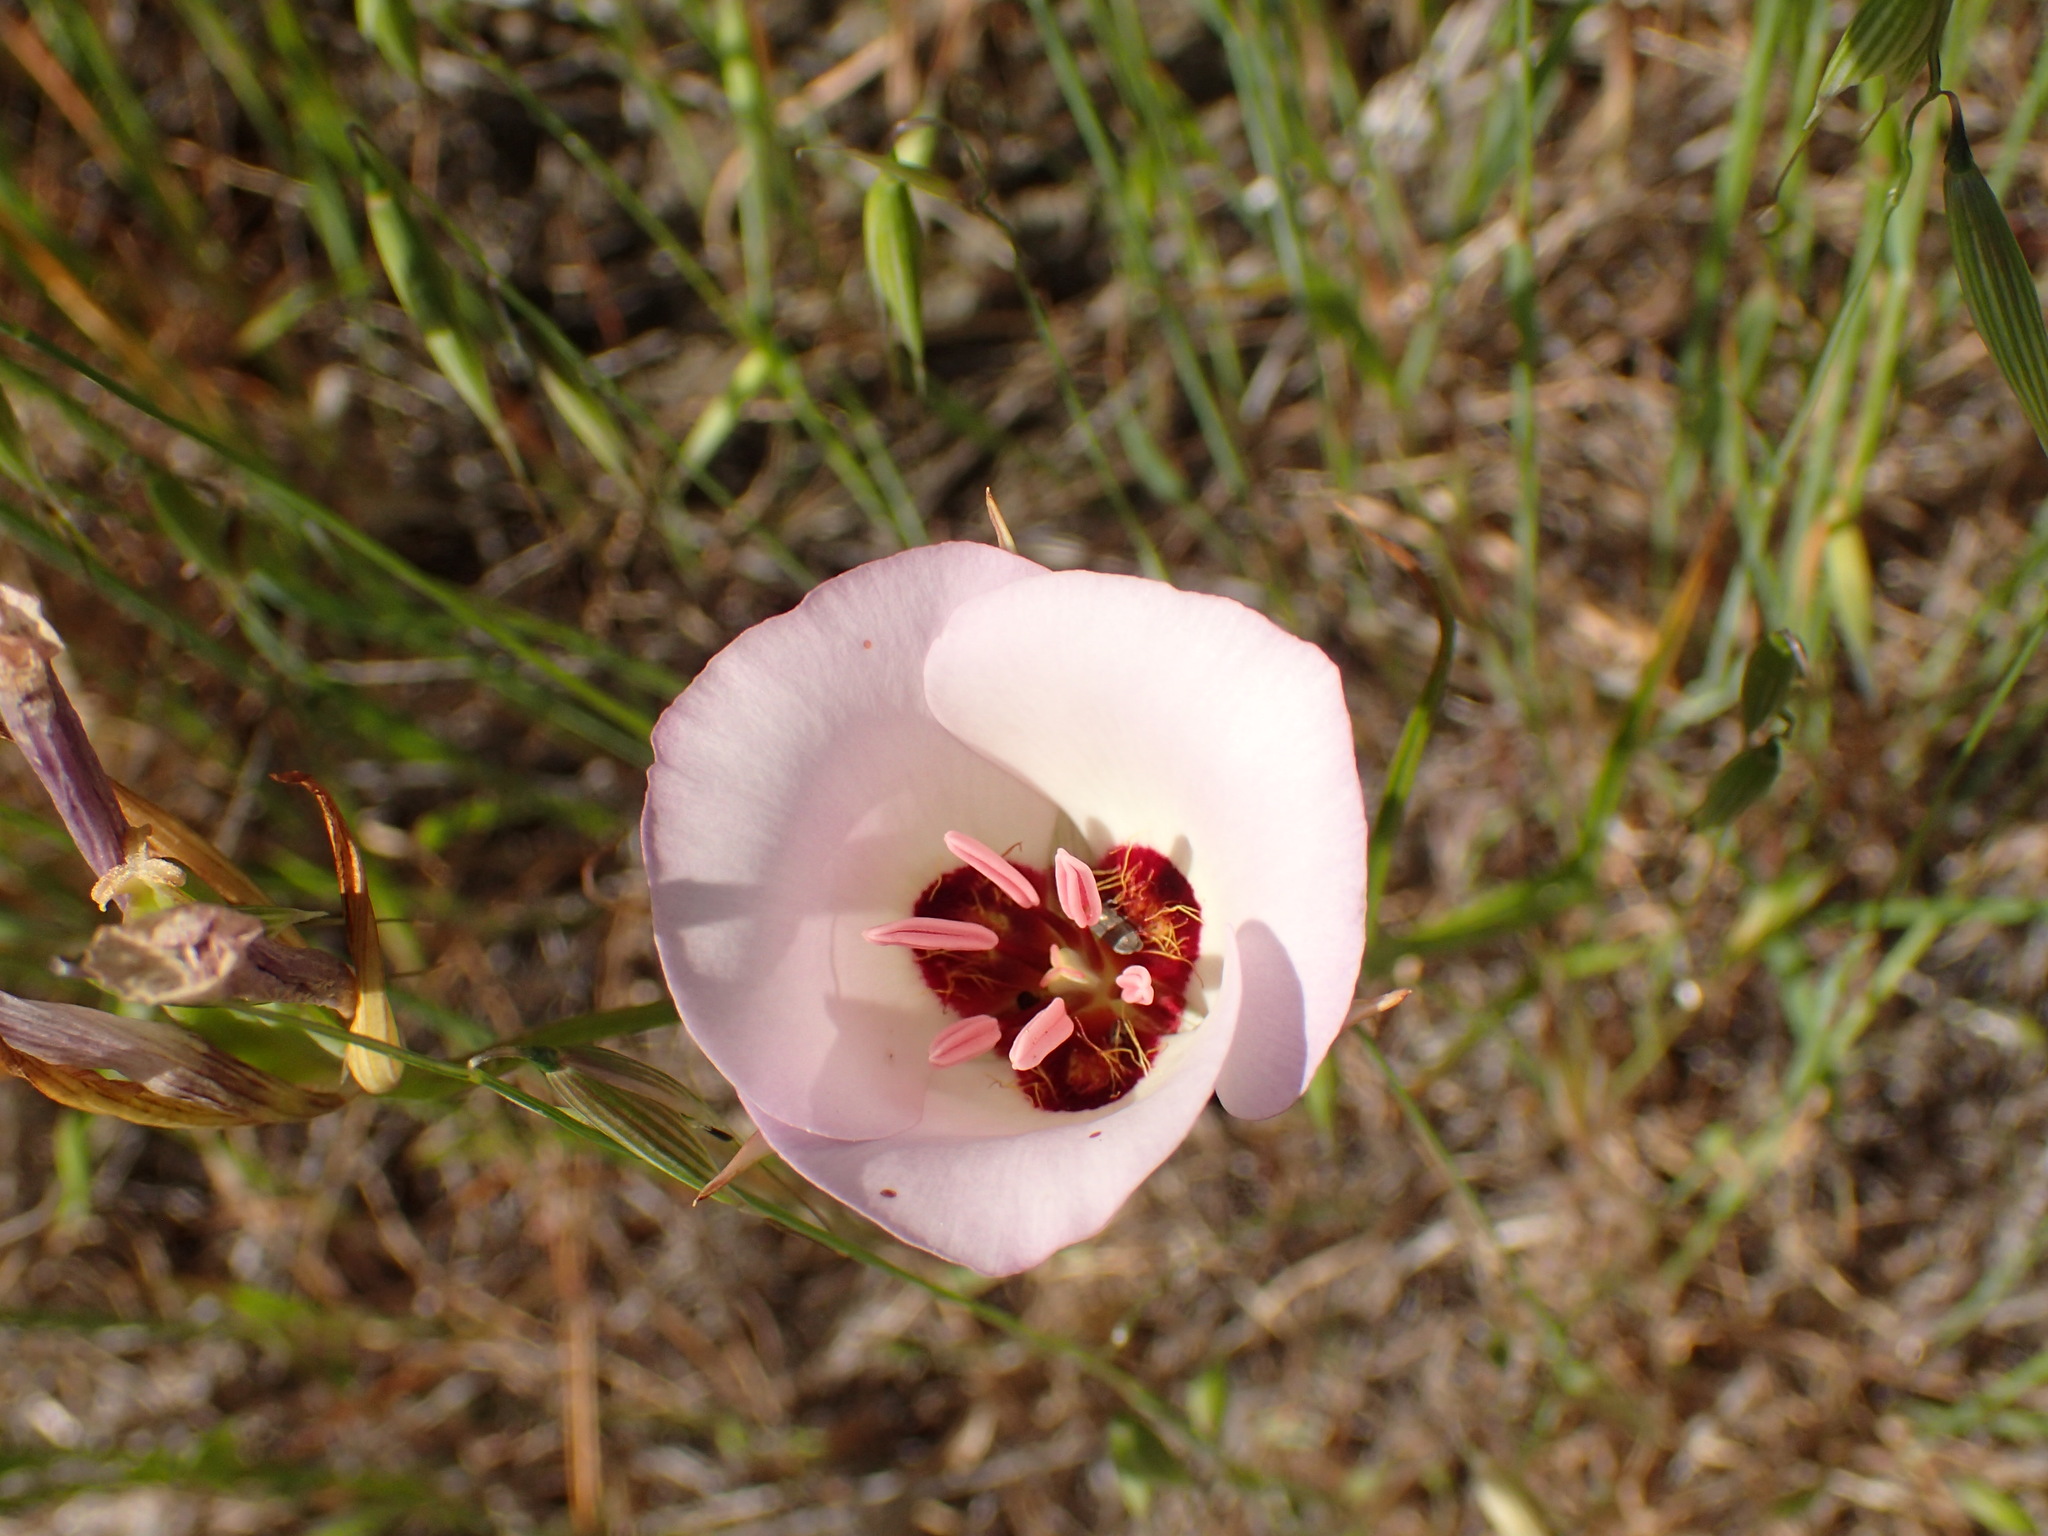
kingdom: Plantae
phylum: Tracheophyta
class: Liliopsida
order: Liliales
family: Liliaceae
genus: Calochortus
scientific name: Calochortus catalinae
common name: Catalina mariposa-lily
